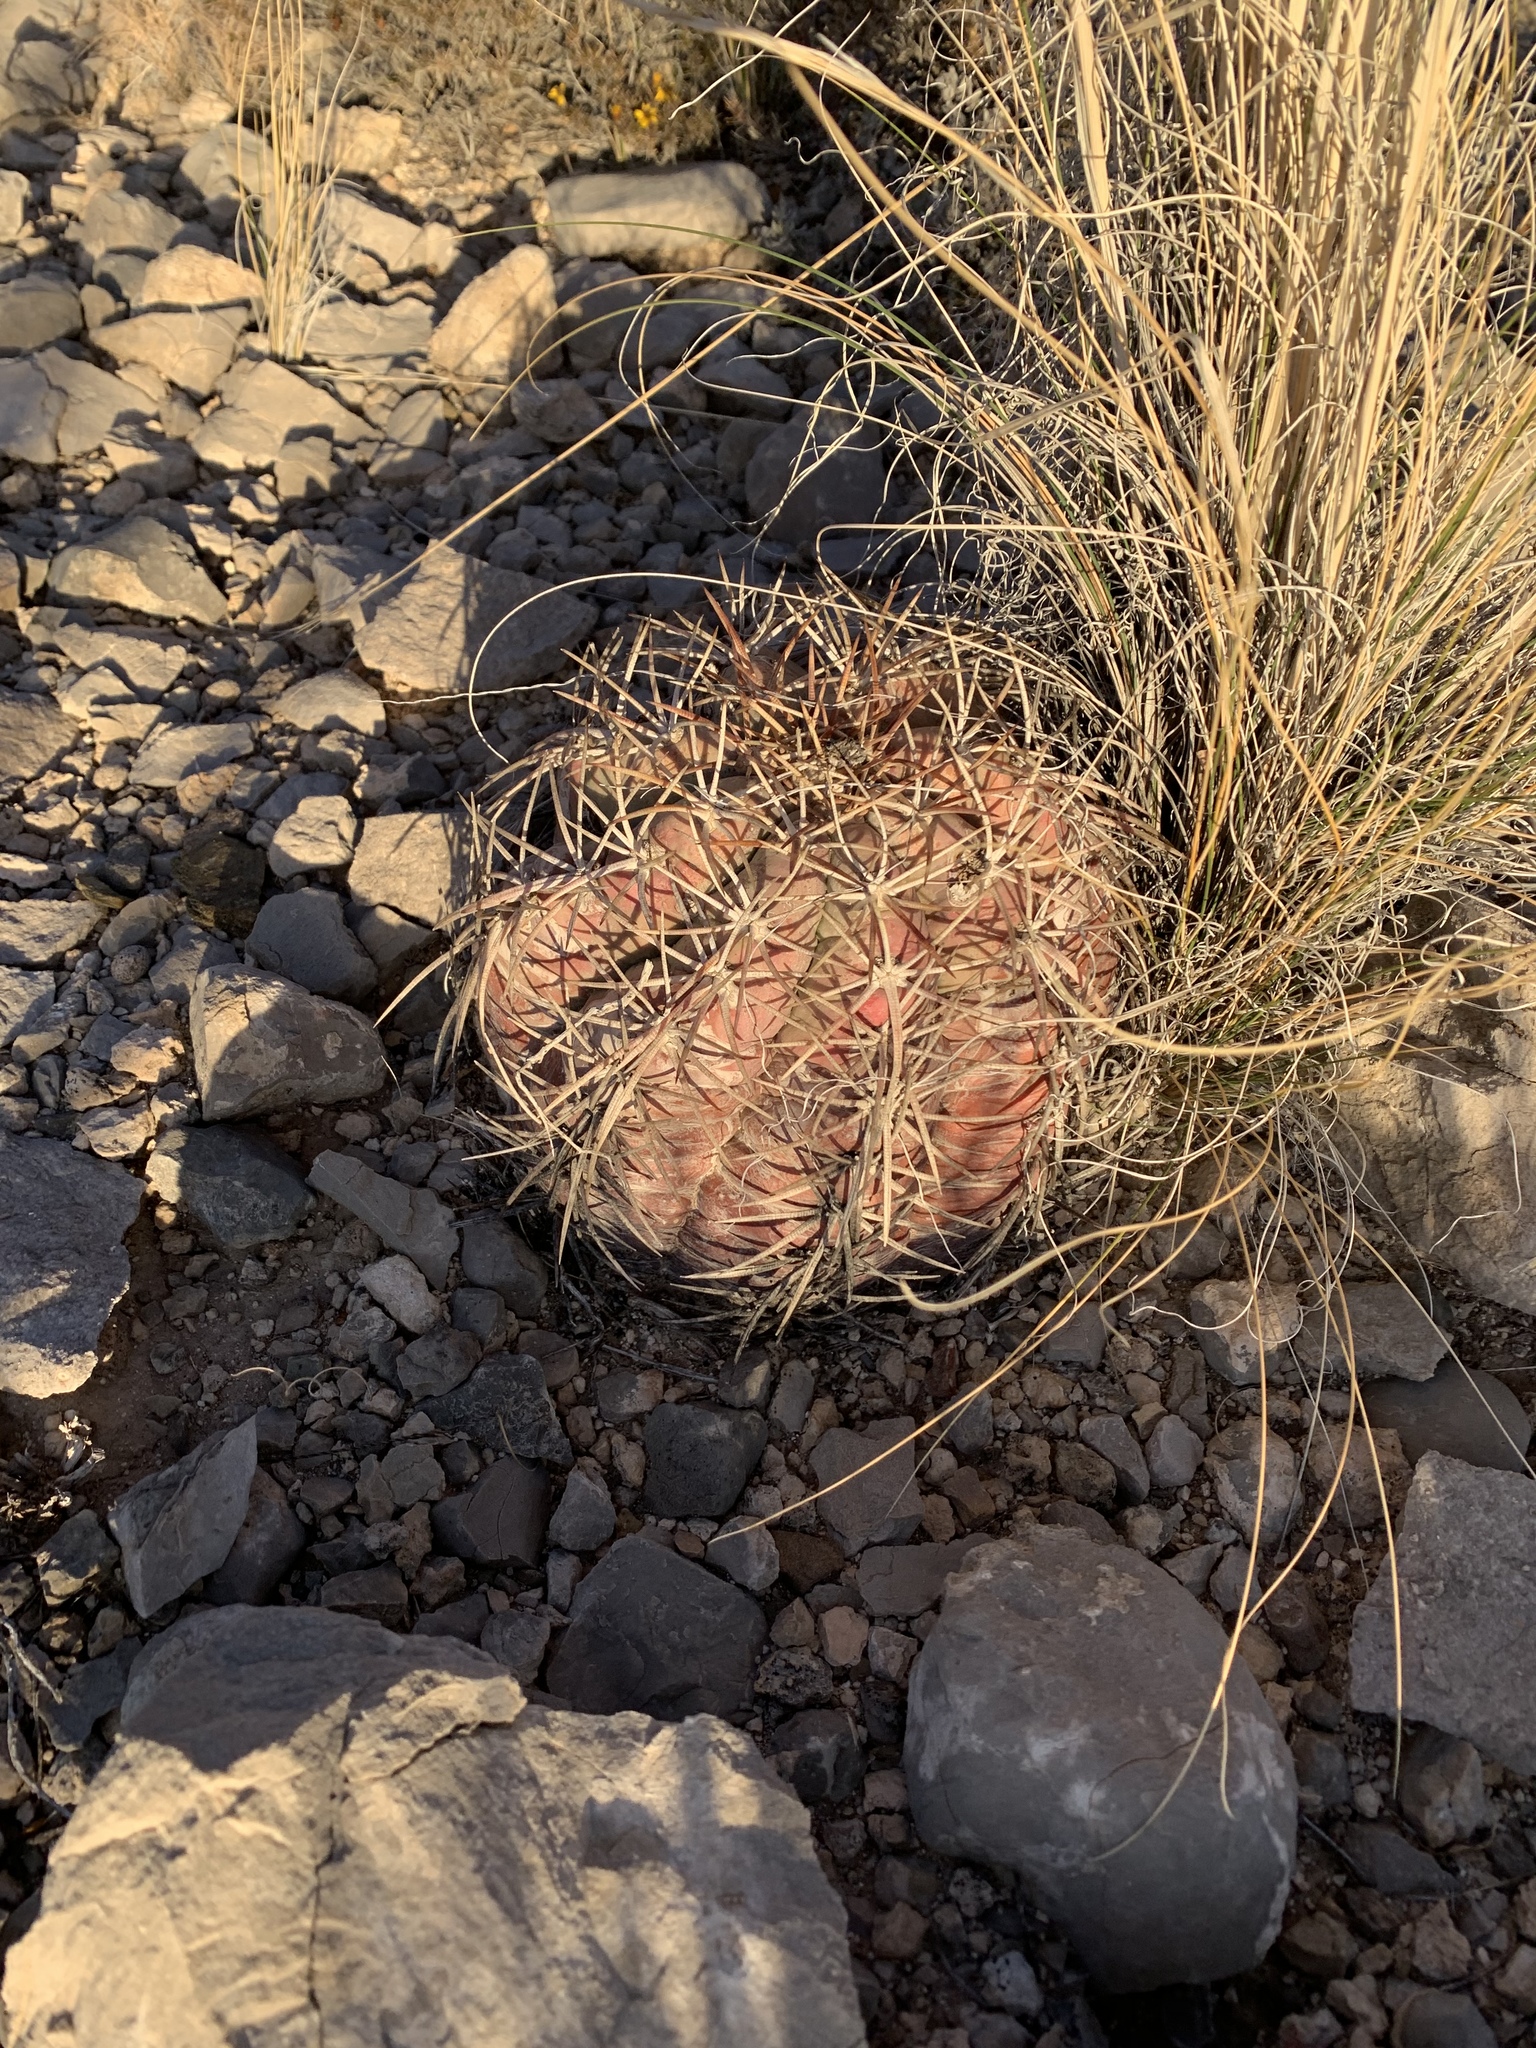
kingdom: Plantae
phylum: Tracheophyta
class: Magnoliopsida
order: Caryophyllales
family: Cactaceae
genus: Echinocactus
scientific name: Echinocactus horizonthalonius
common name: Devilshead
